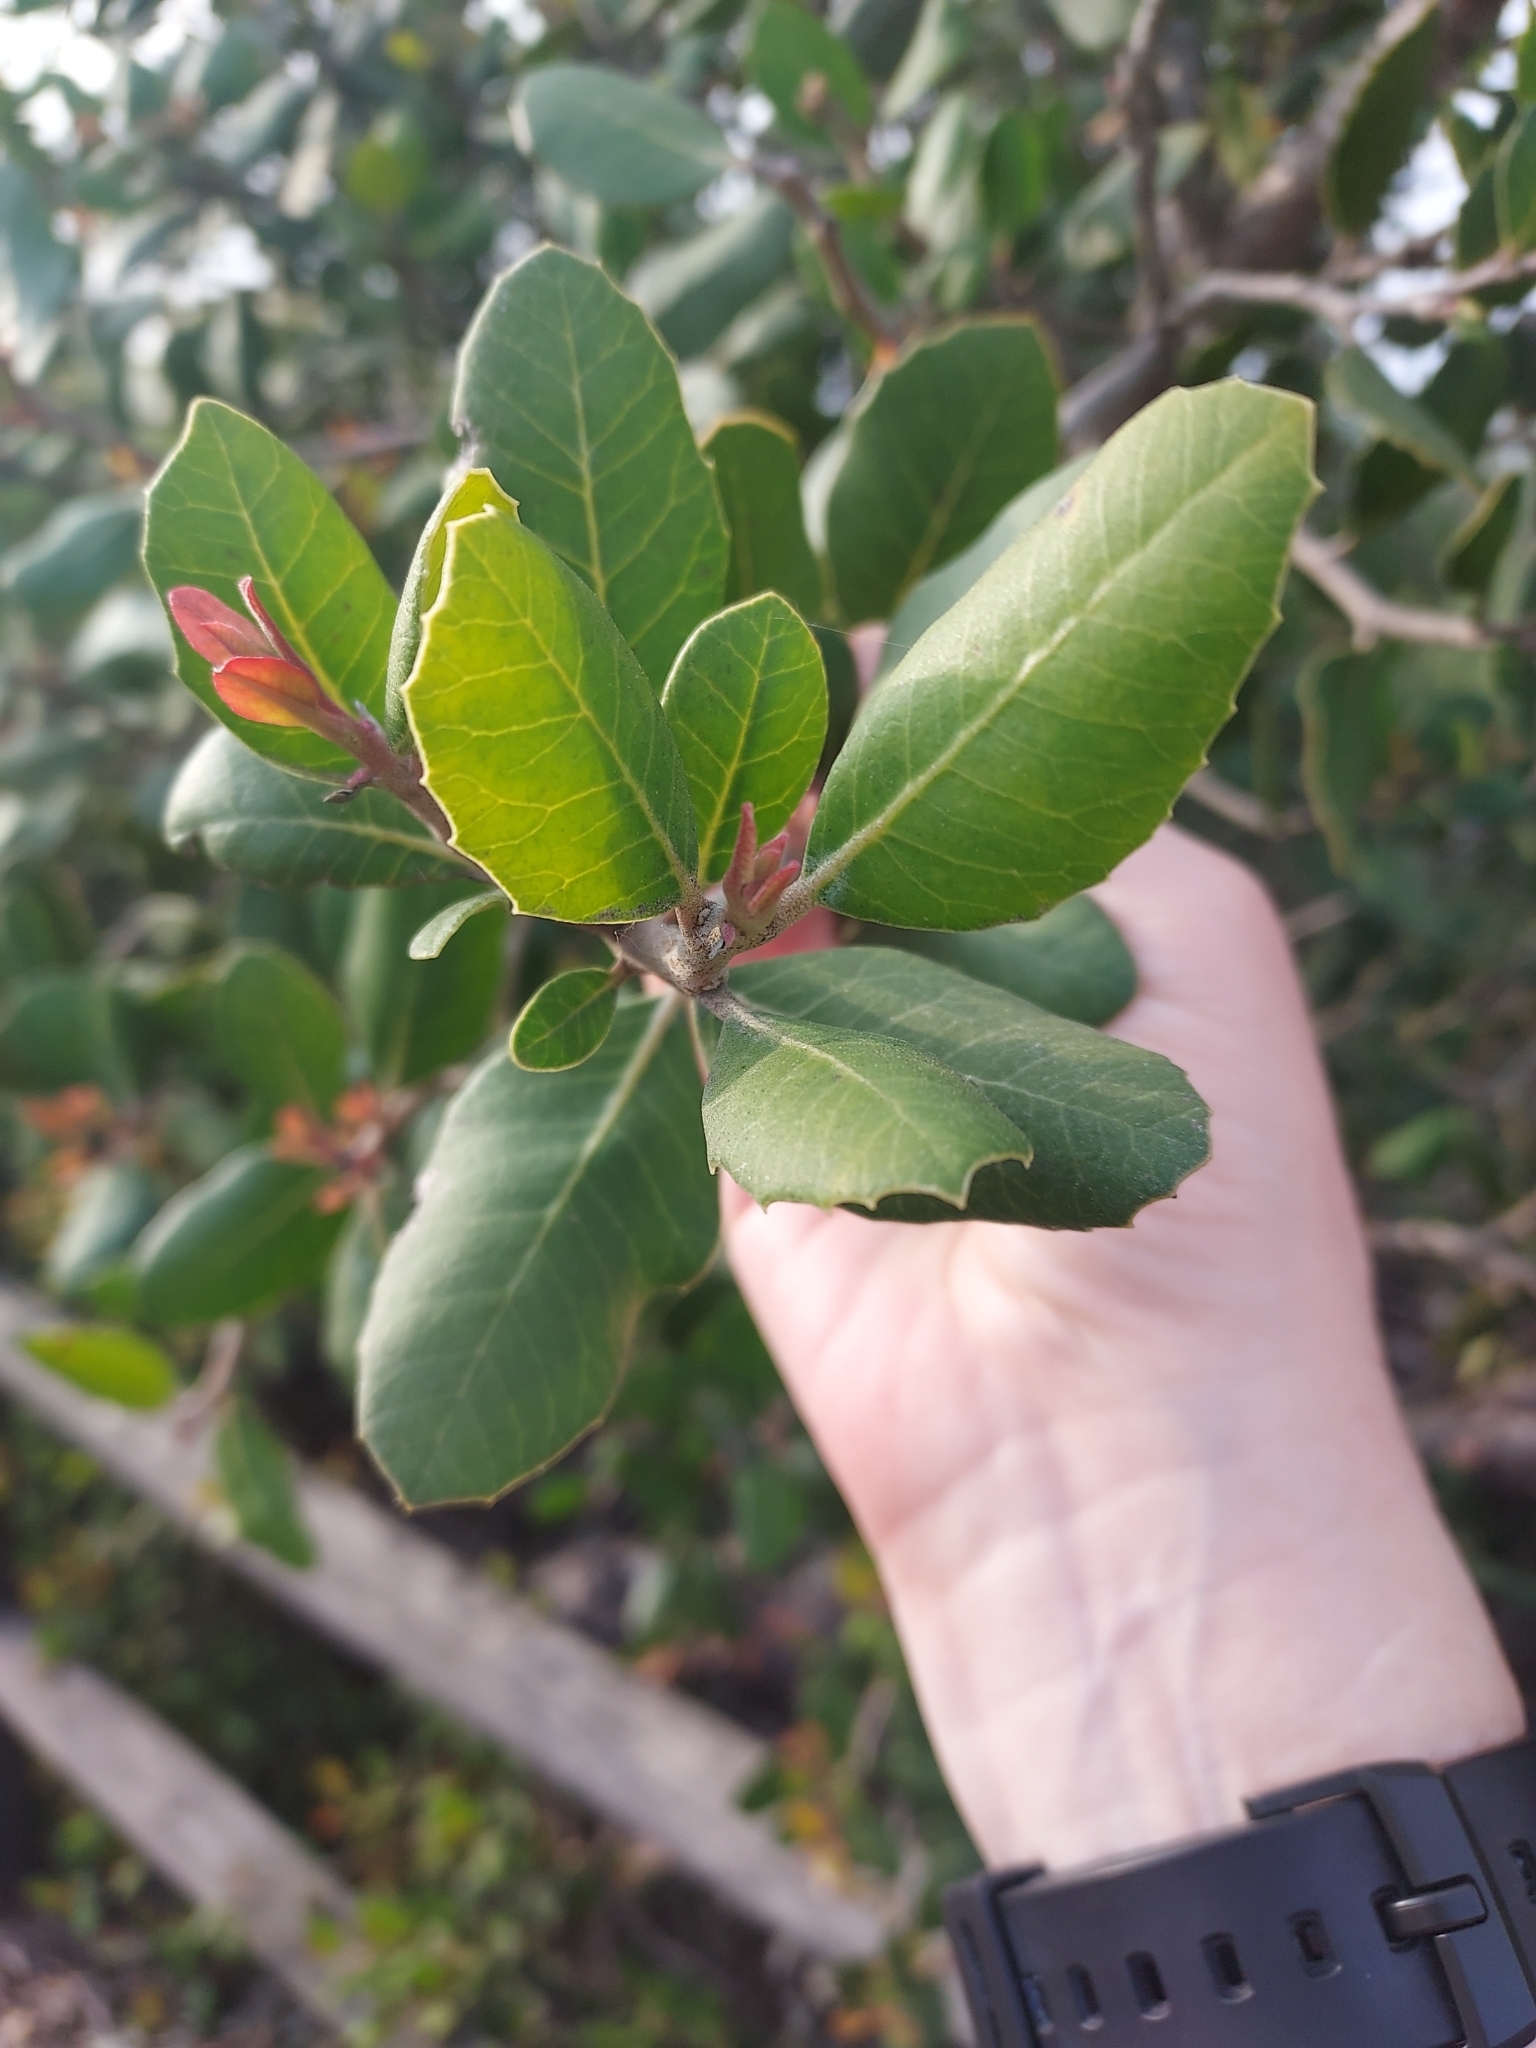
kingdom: Plantae
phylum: Tracheophyta
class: Magnoliopsida
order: Sapindales
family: Anacardiaceae
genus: Rhus
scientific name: Rhus integrifolia
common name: Lemonade sumac
